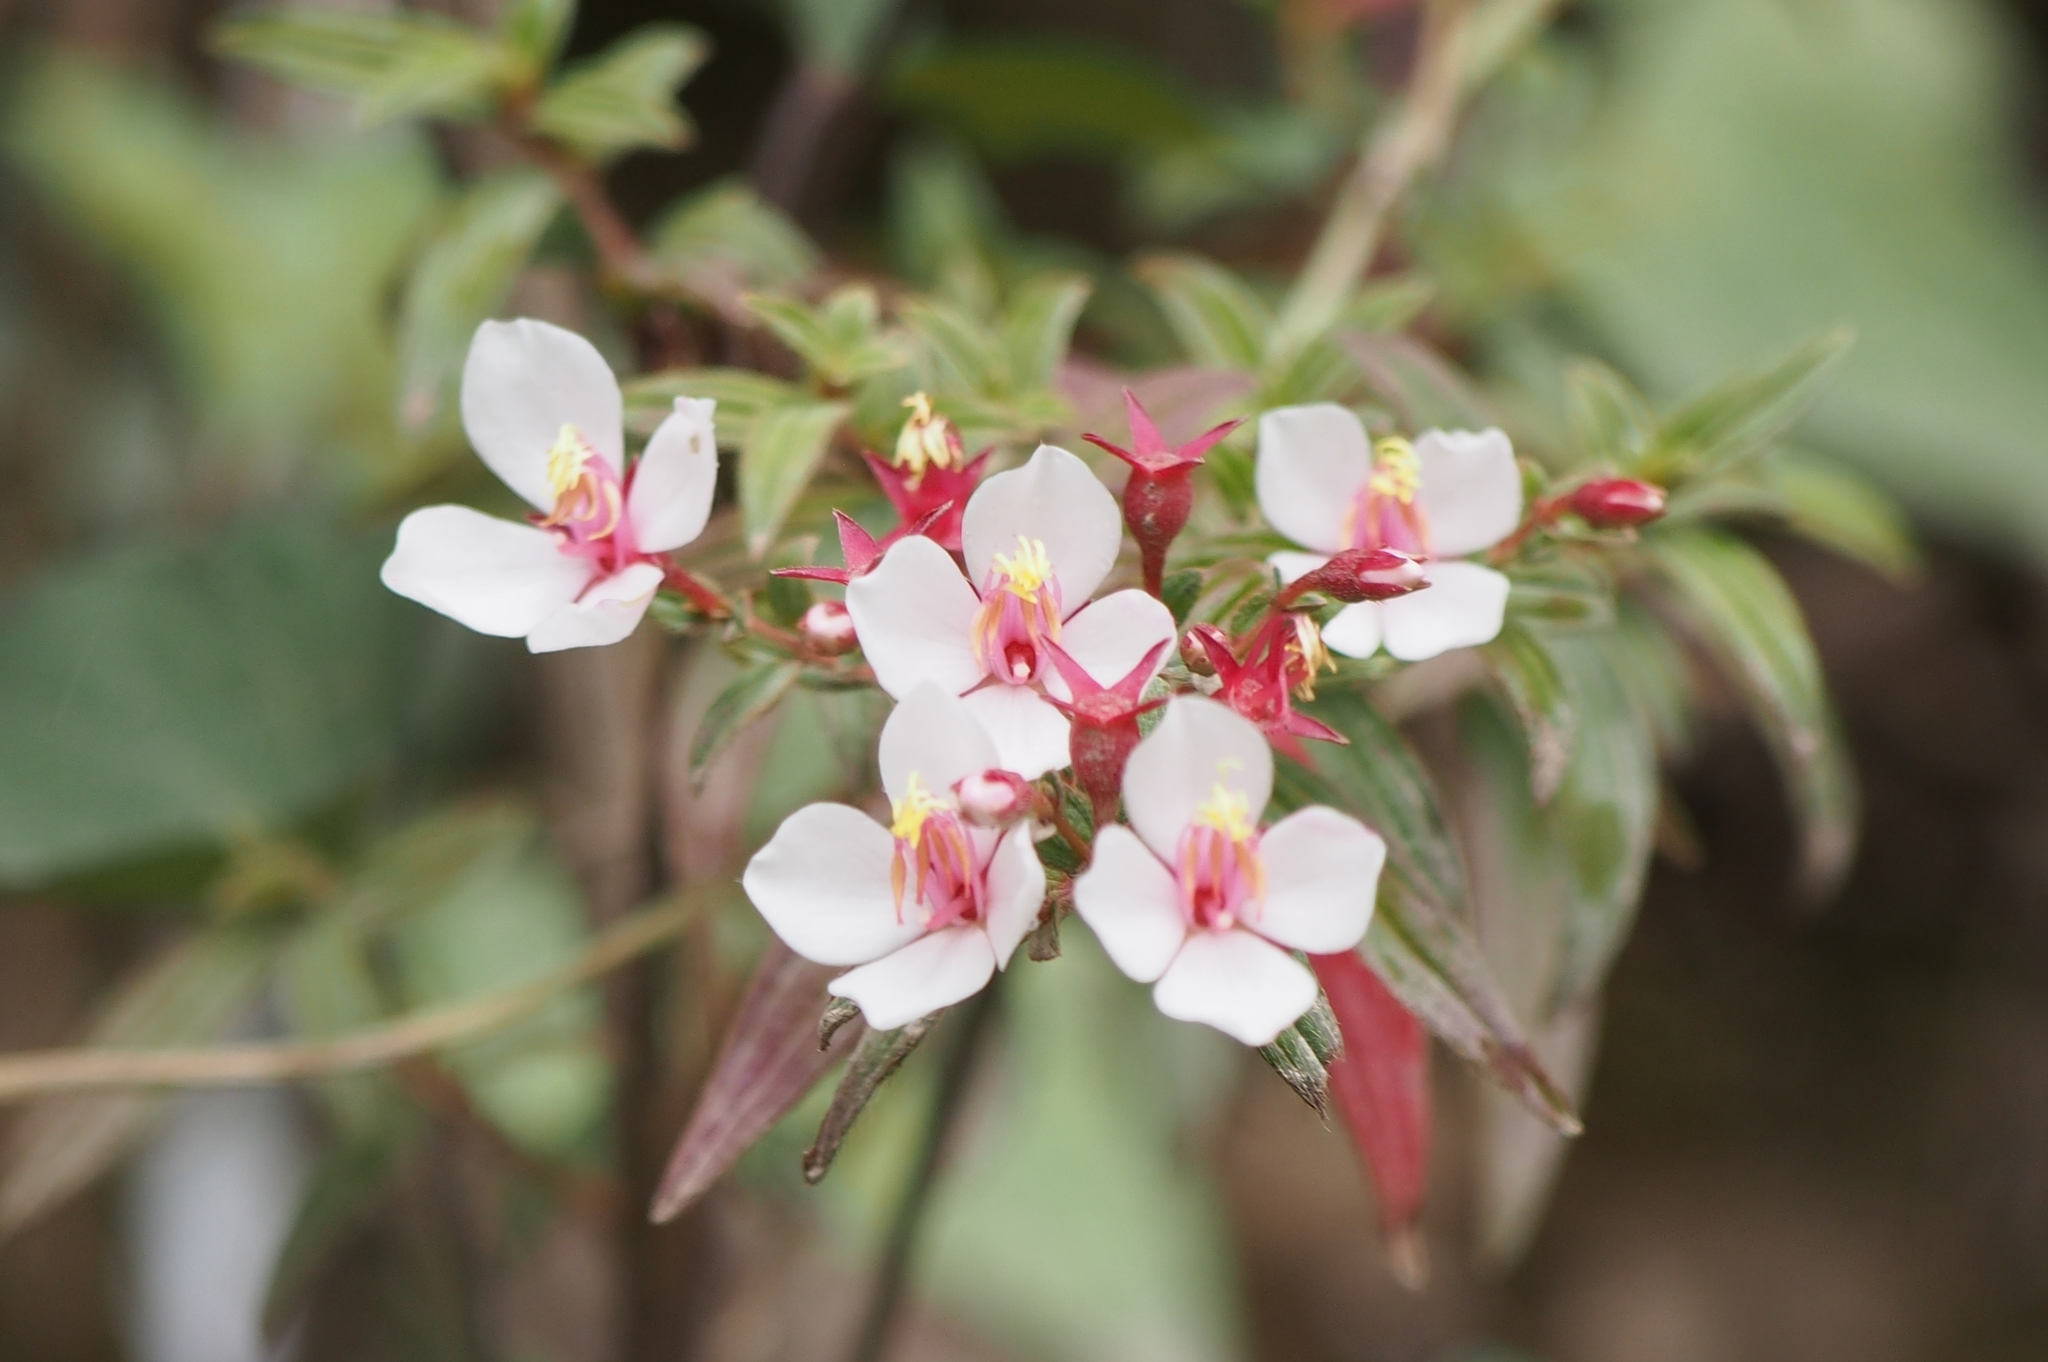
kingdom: Plantae
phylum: Tracheophyta
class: Magnoliopsida
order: Myrtales
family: Melastomataceae
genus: Monochaetum
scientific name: Monochaetum floribundum
